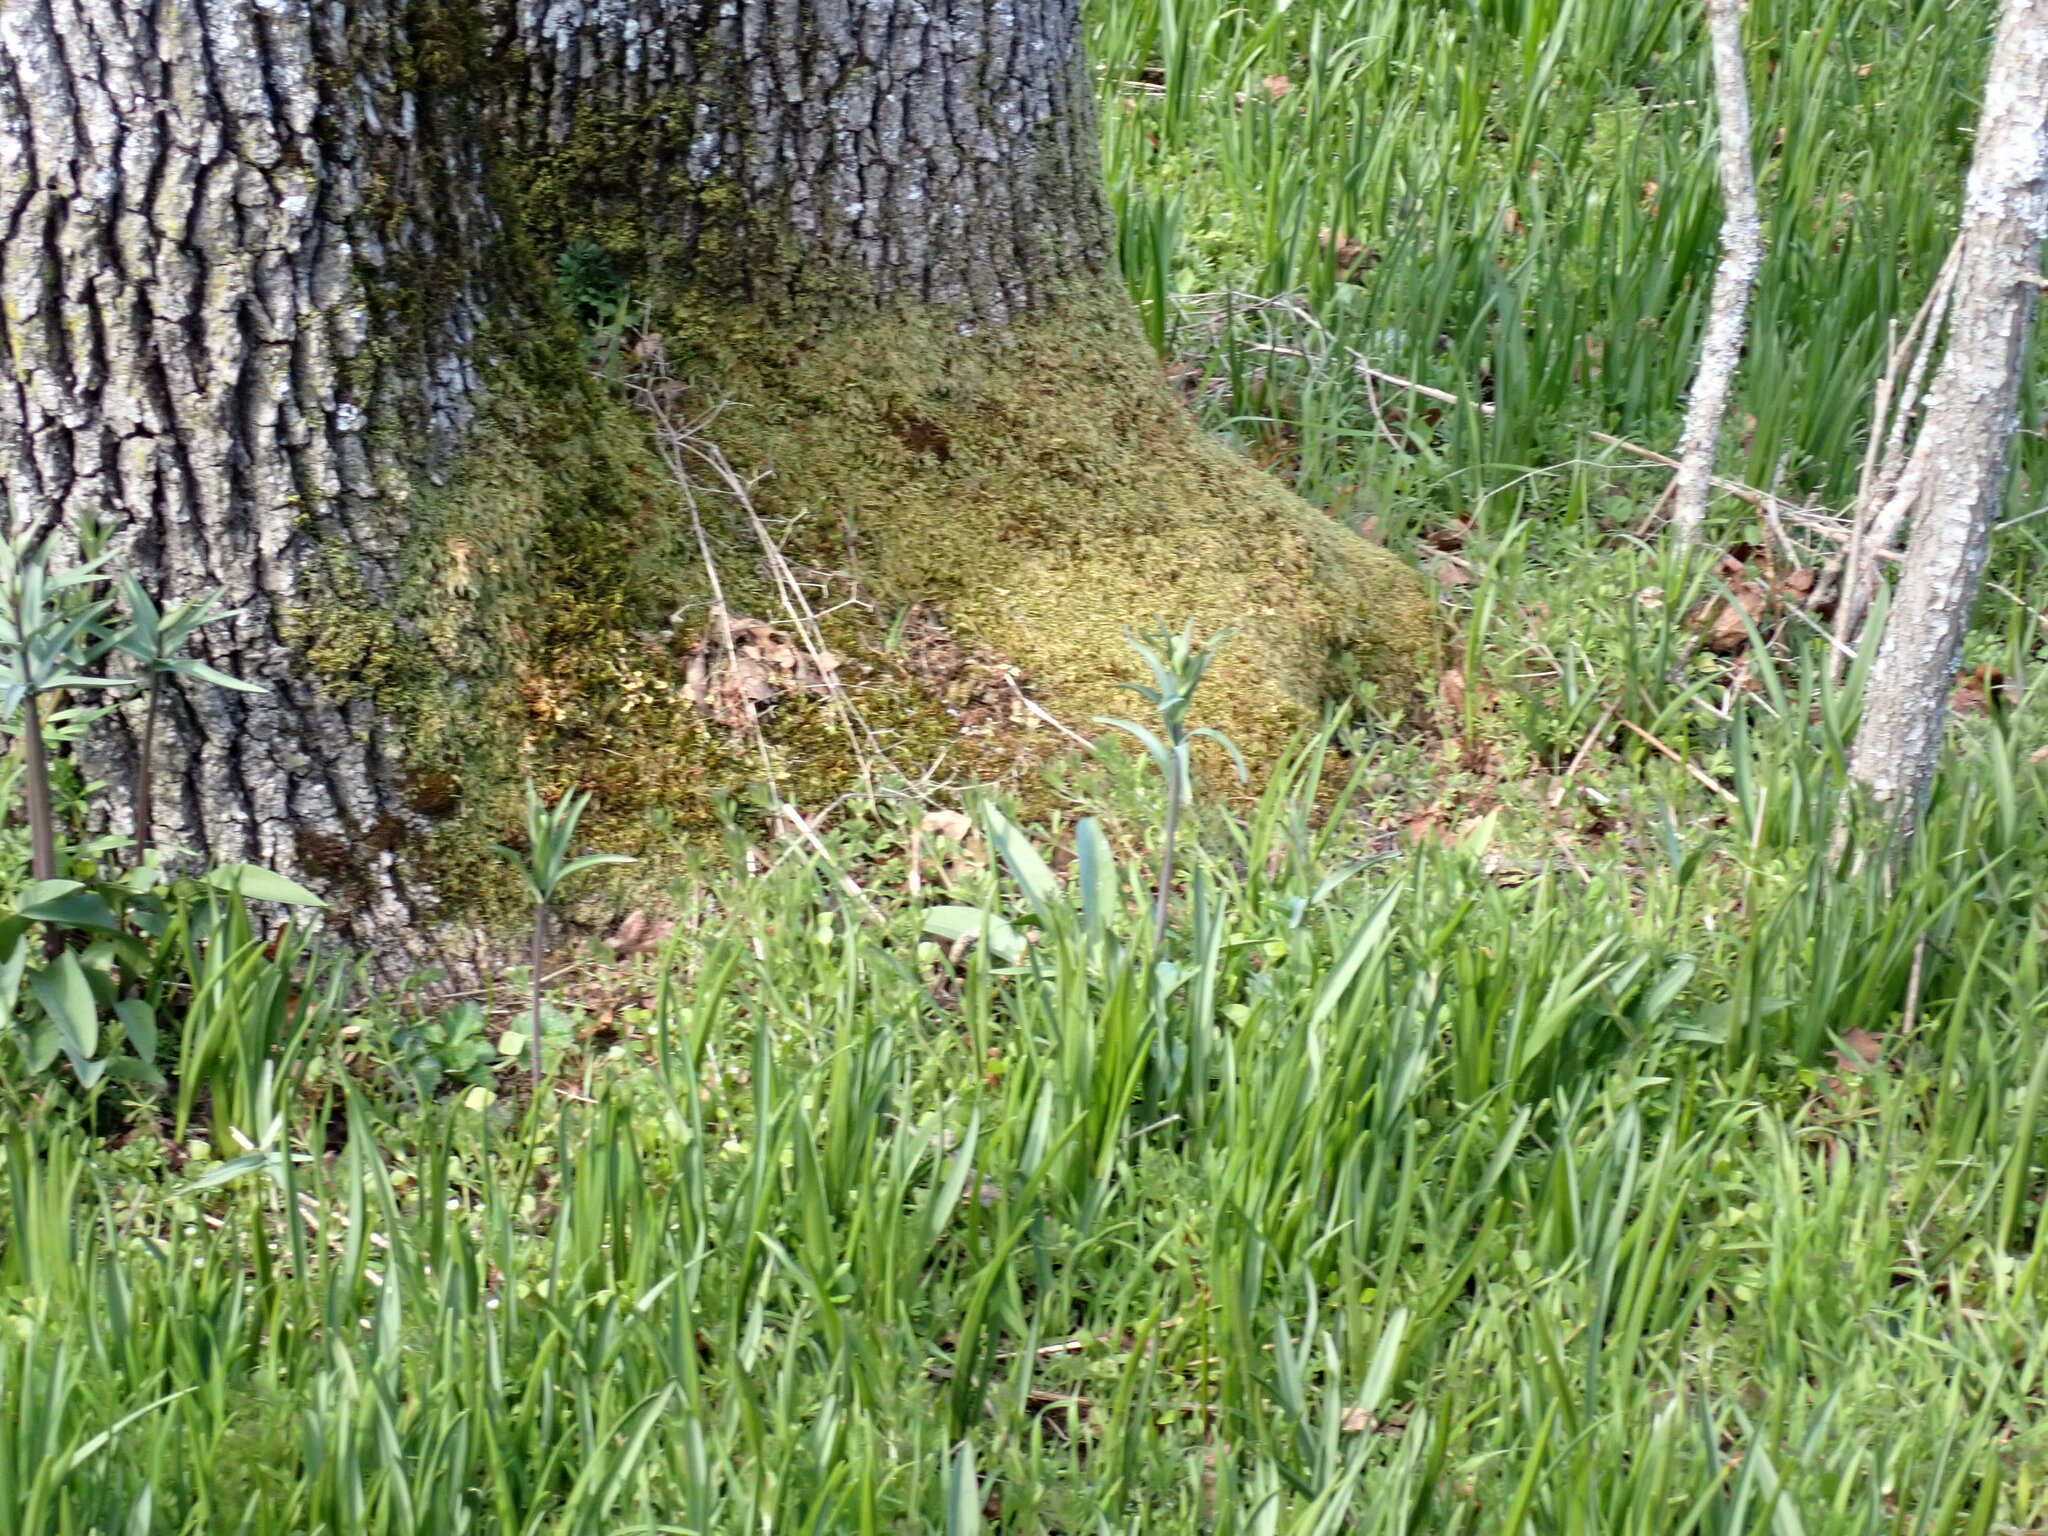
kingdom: Plantae
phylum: Tracheophyta
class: Liliopsida
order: Liliales
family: Liliaceae
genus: Fritillaria
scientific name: Fritillaria affinis
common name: Ojai fritillary
